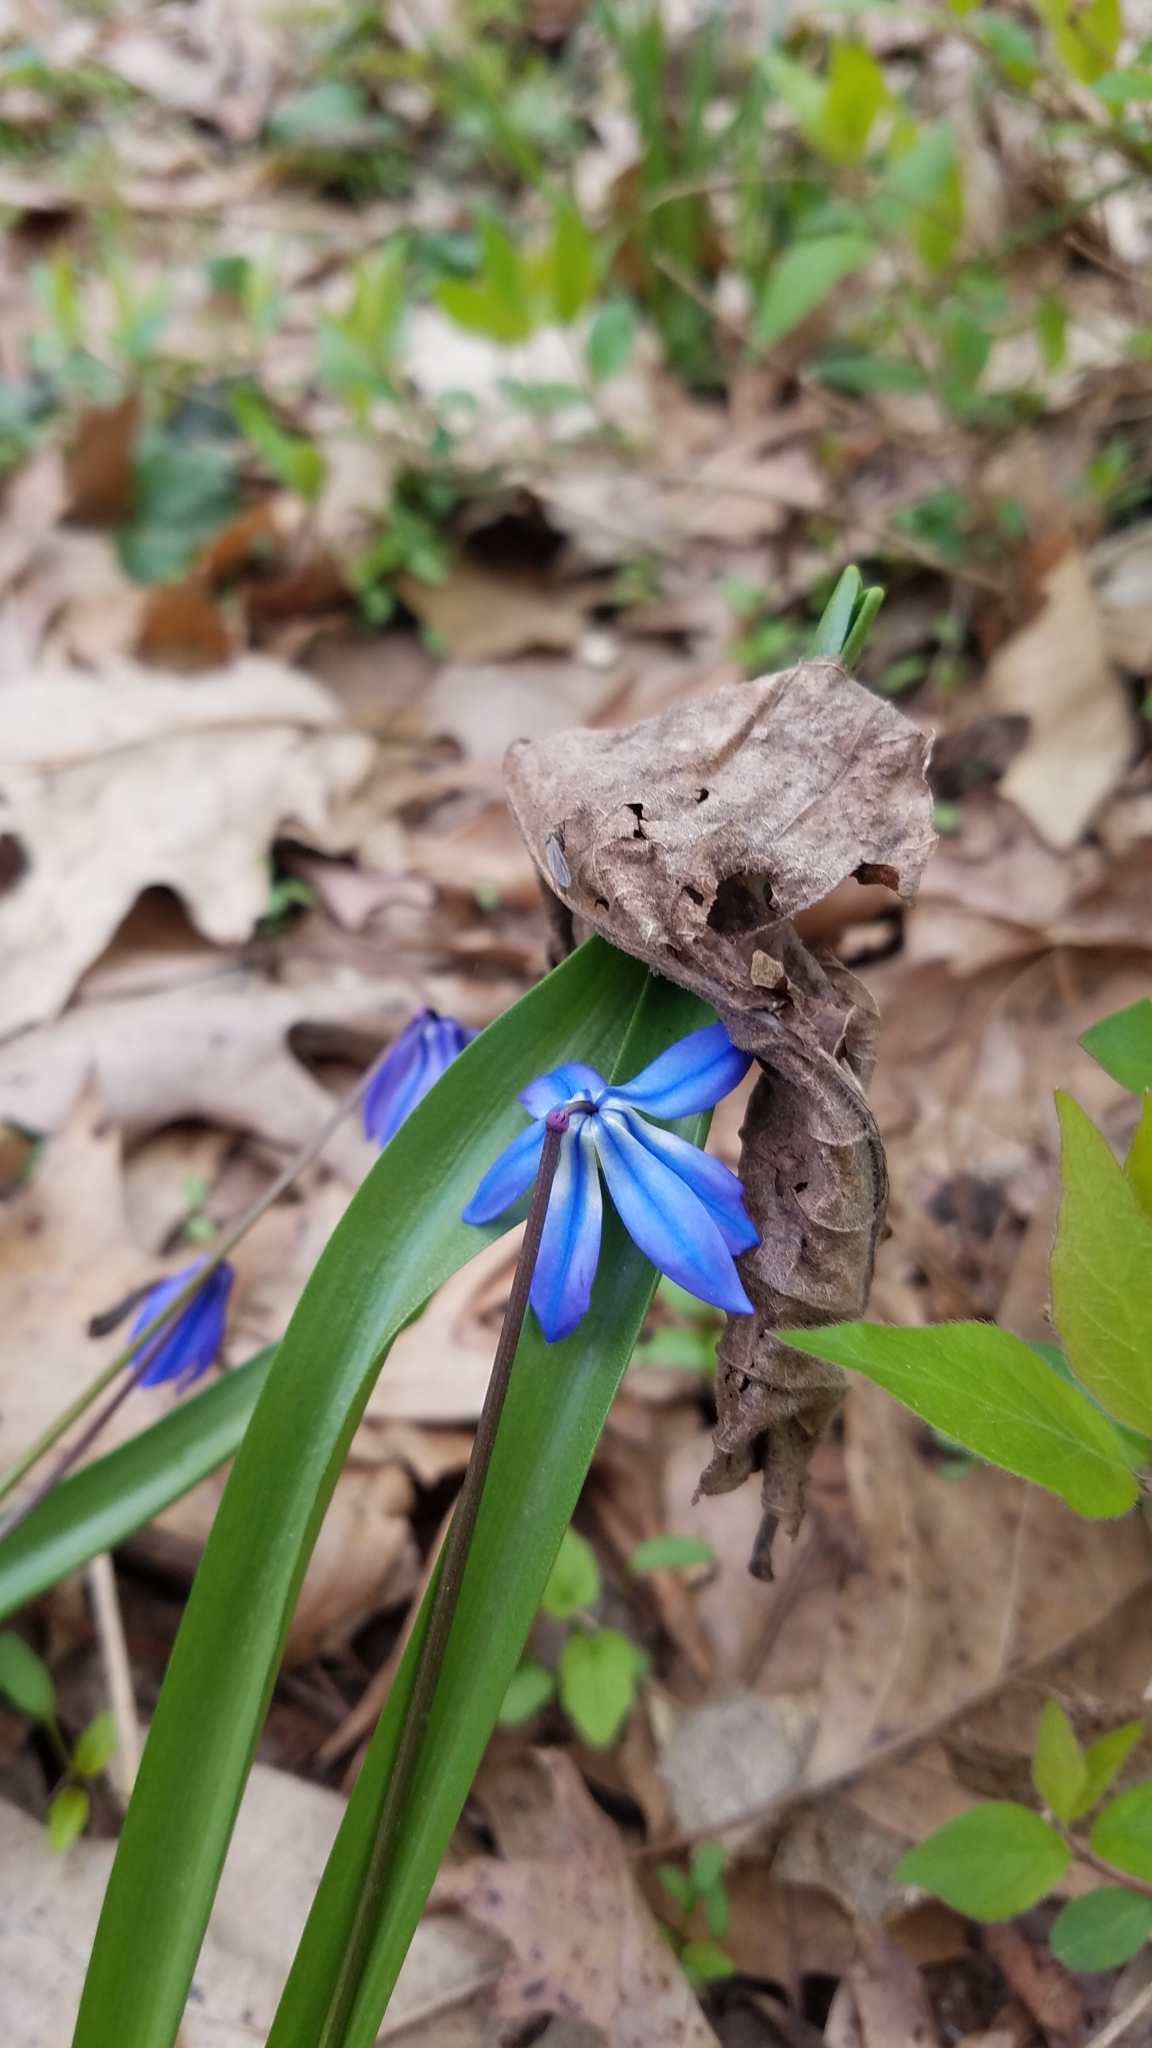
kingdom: Plantae
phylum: Tracheophyta
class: Liliopsida
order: Asparagales
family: Asparagaceae
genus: Scilla
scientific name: Scilla siberica
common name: Siberian squill
